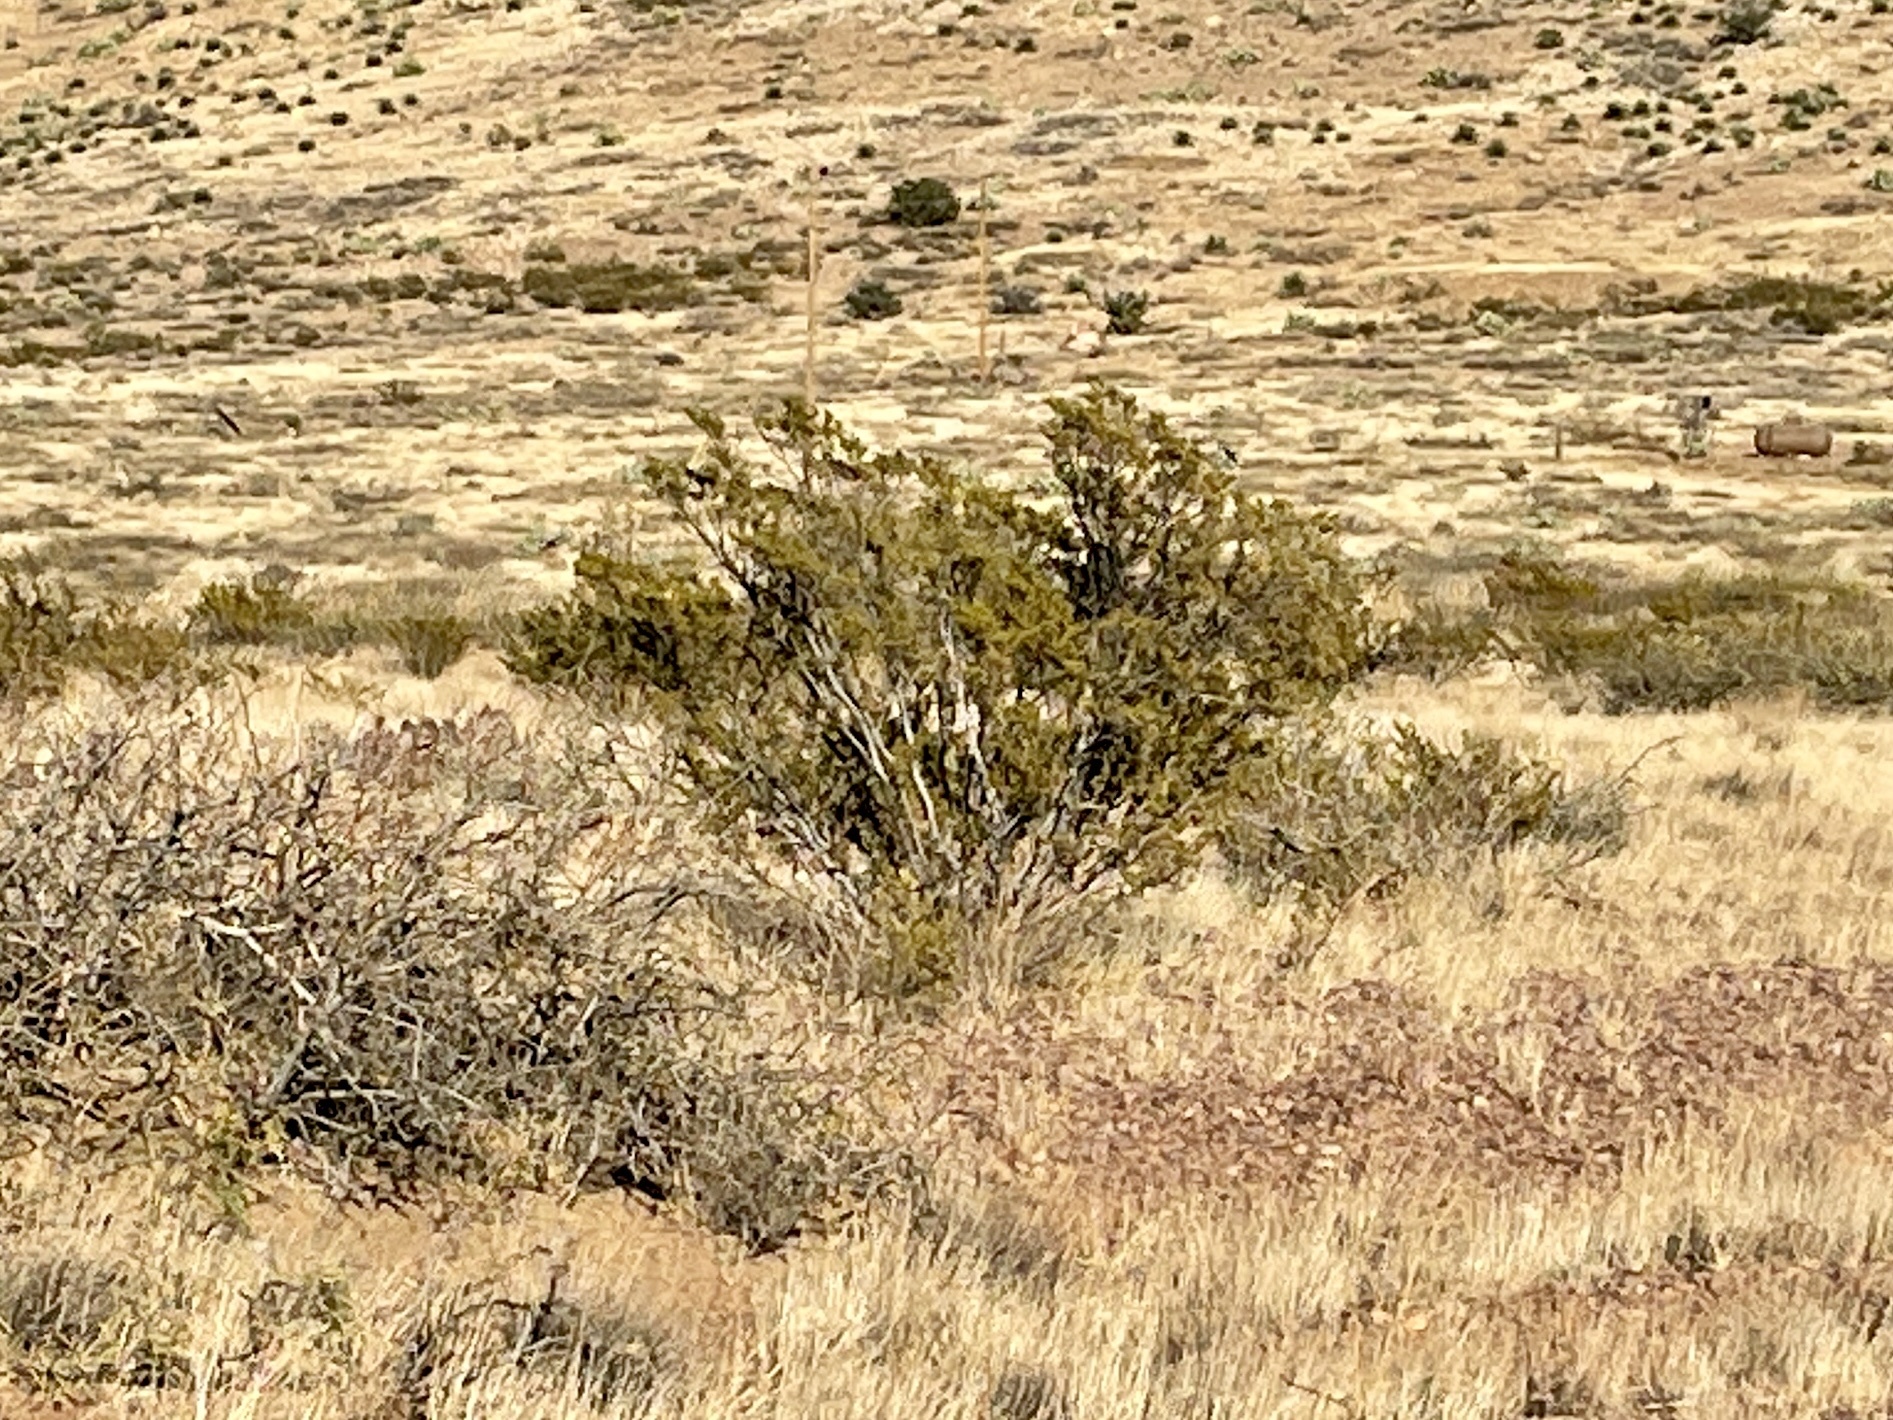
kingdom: Plantae
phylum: Tracheophyta
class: Magnoliopsida
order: Zygophyllales
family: Zygophyllaceae
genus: Larrea
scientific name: Larrea tridentata
